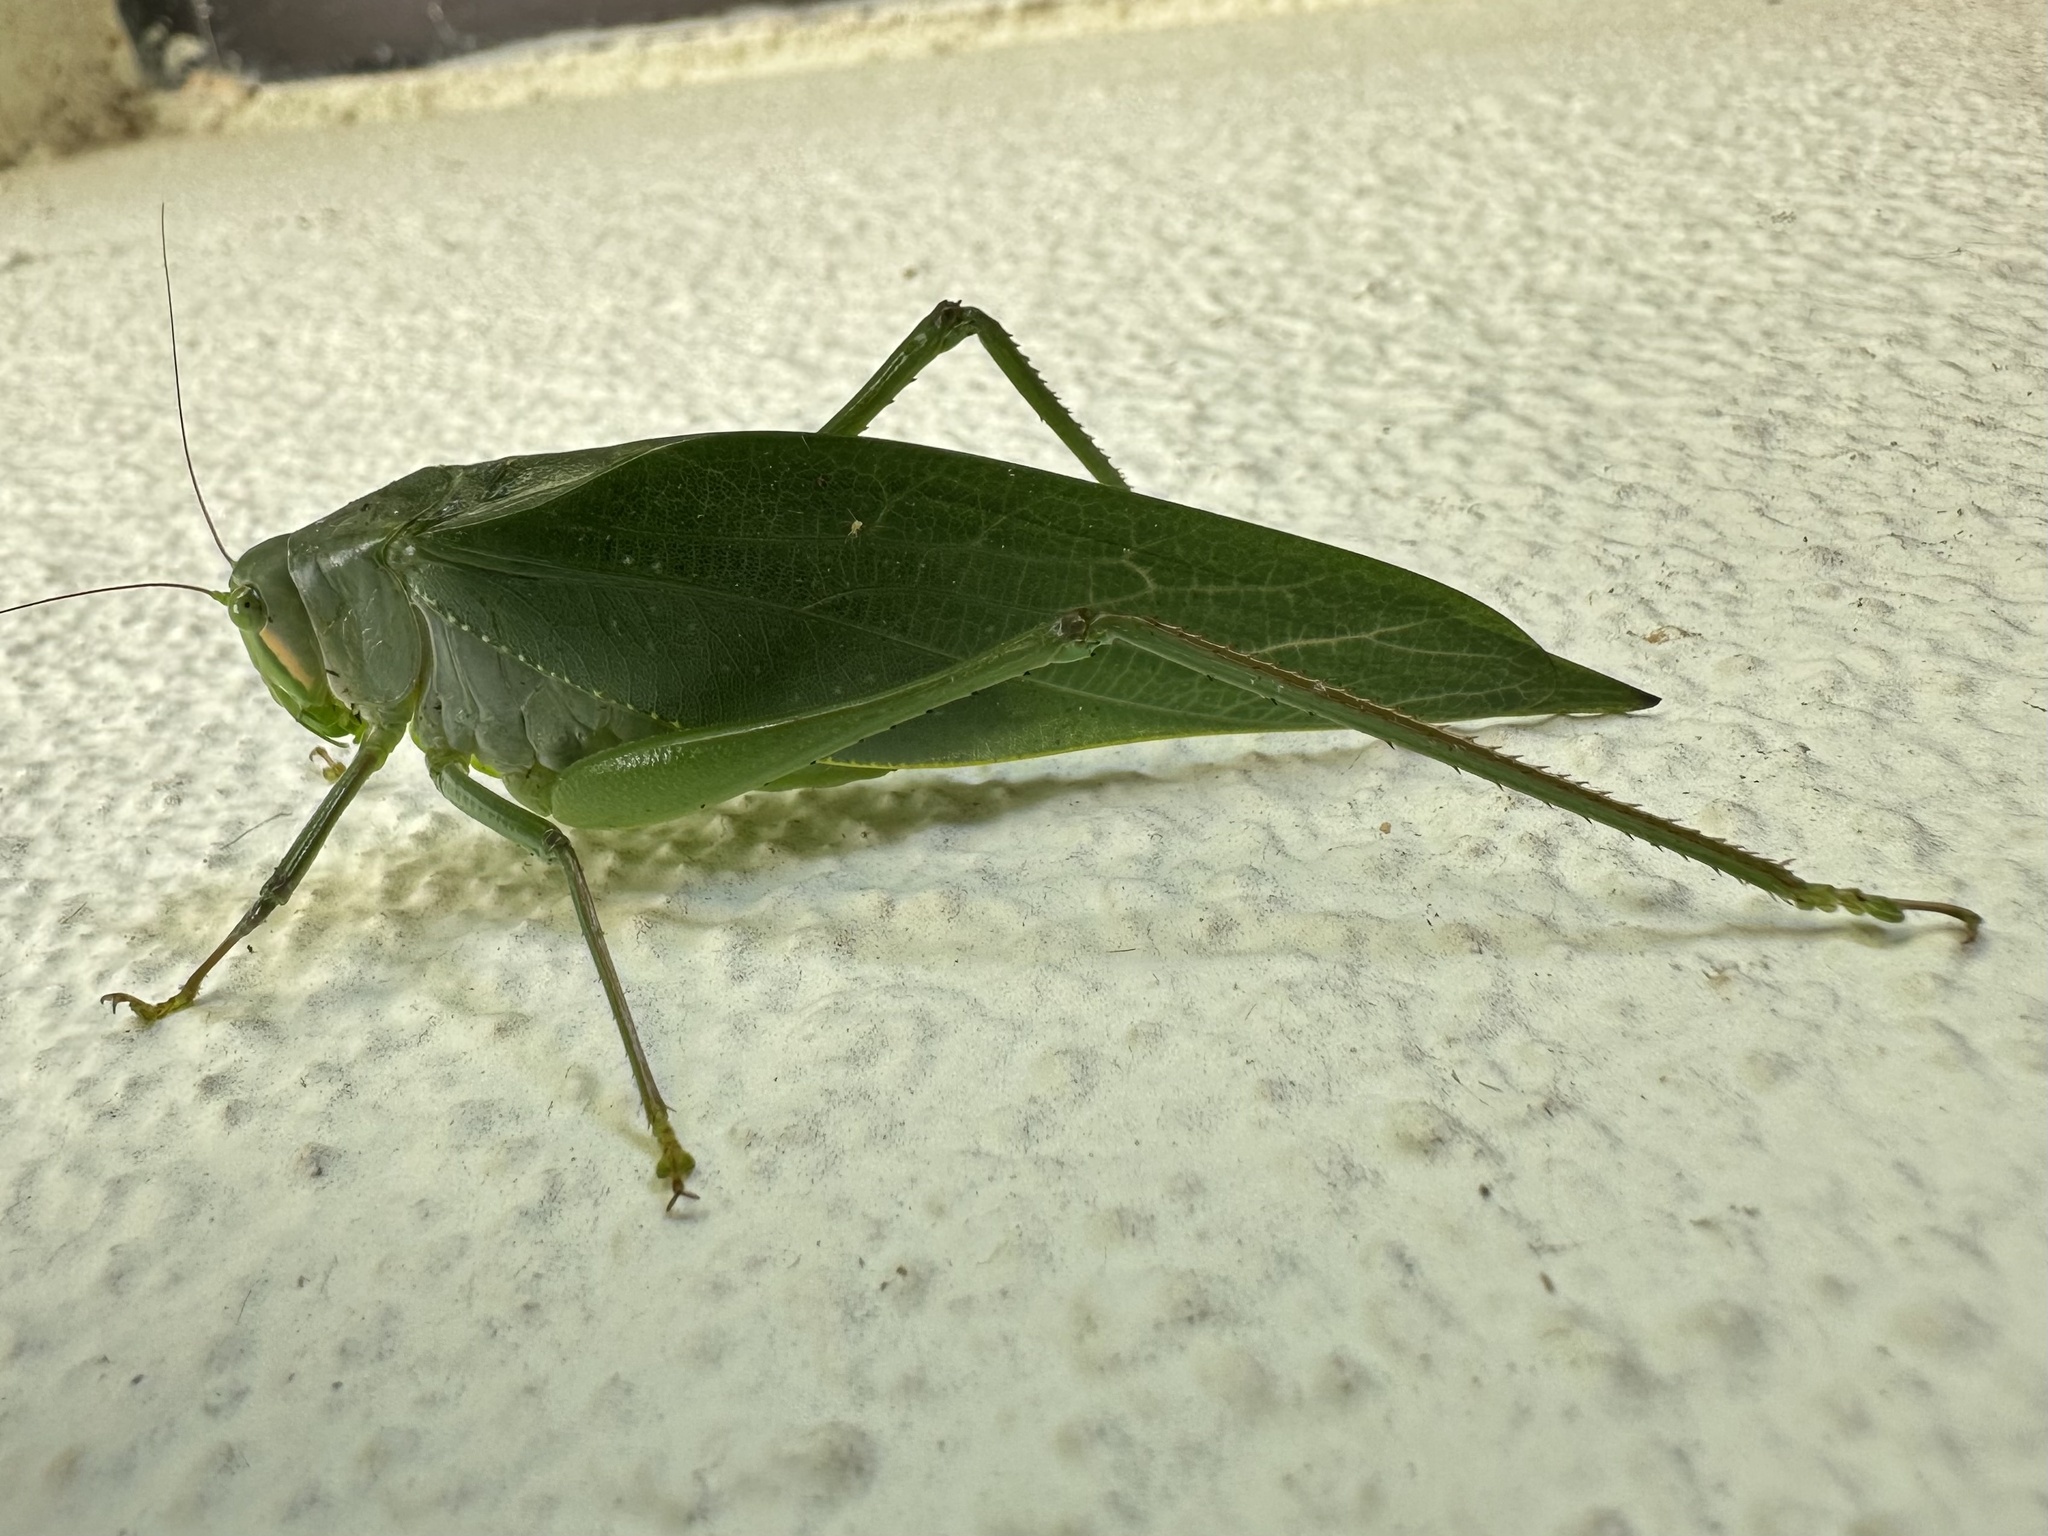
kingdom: Animalia
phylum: Arthropoda
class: Insecta
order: Orthoptera
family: Tettigoniidae
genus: Philophyllia
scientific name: Philophyllia ingens
